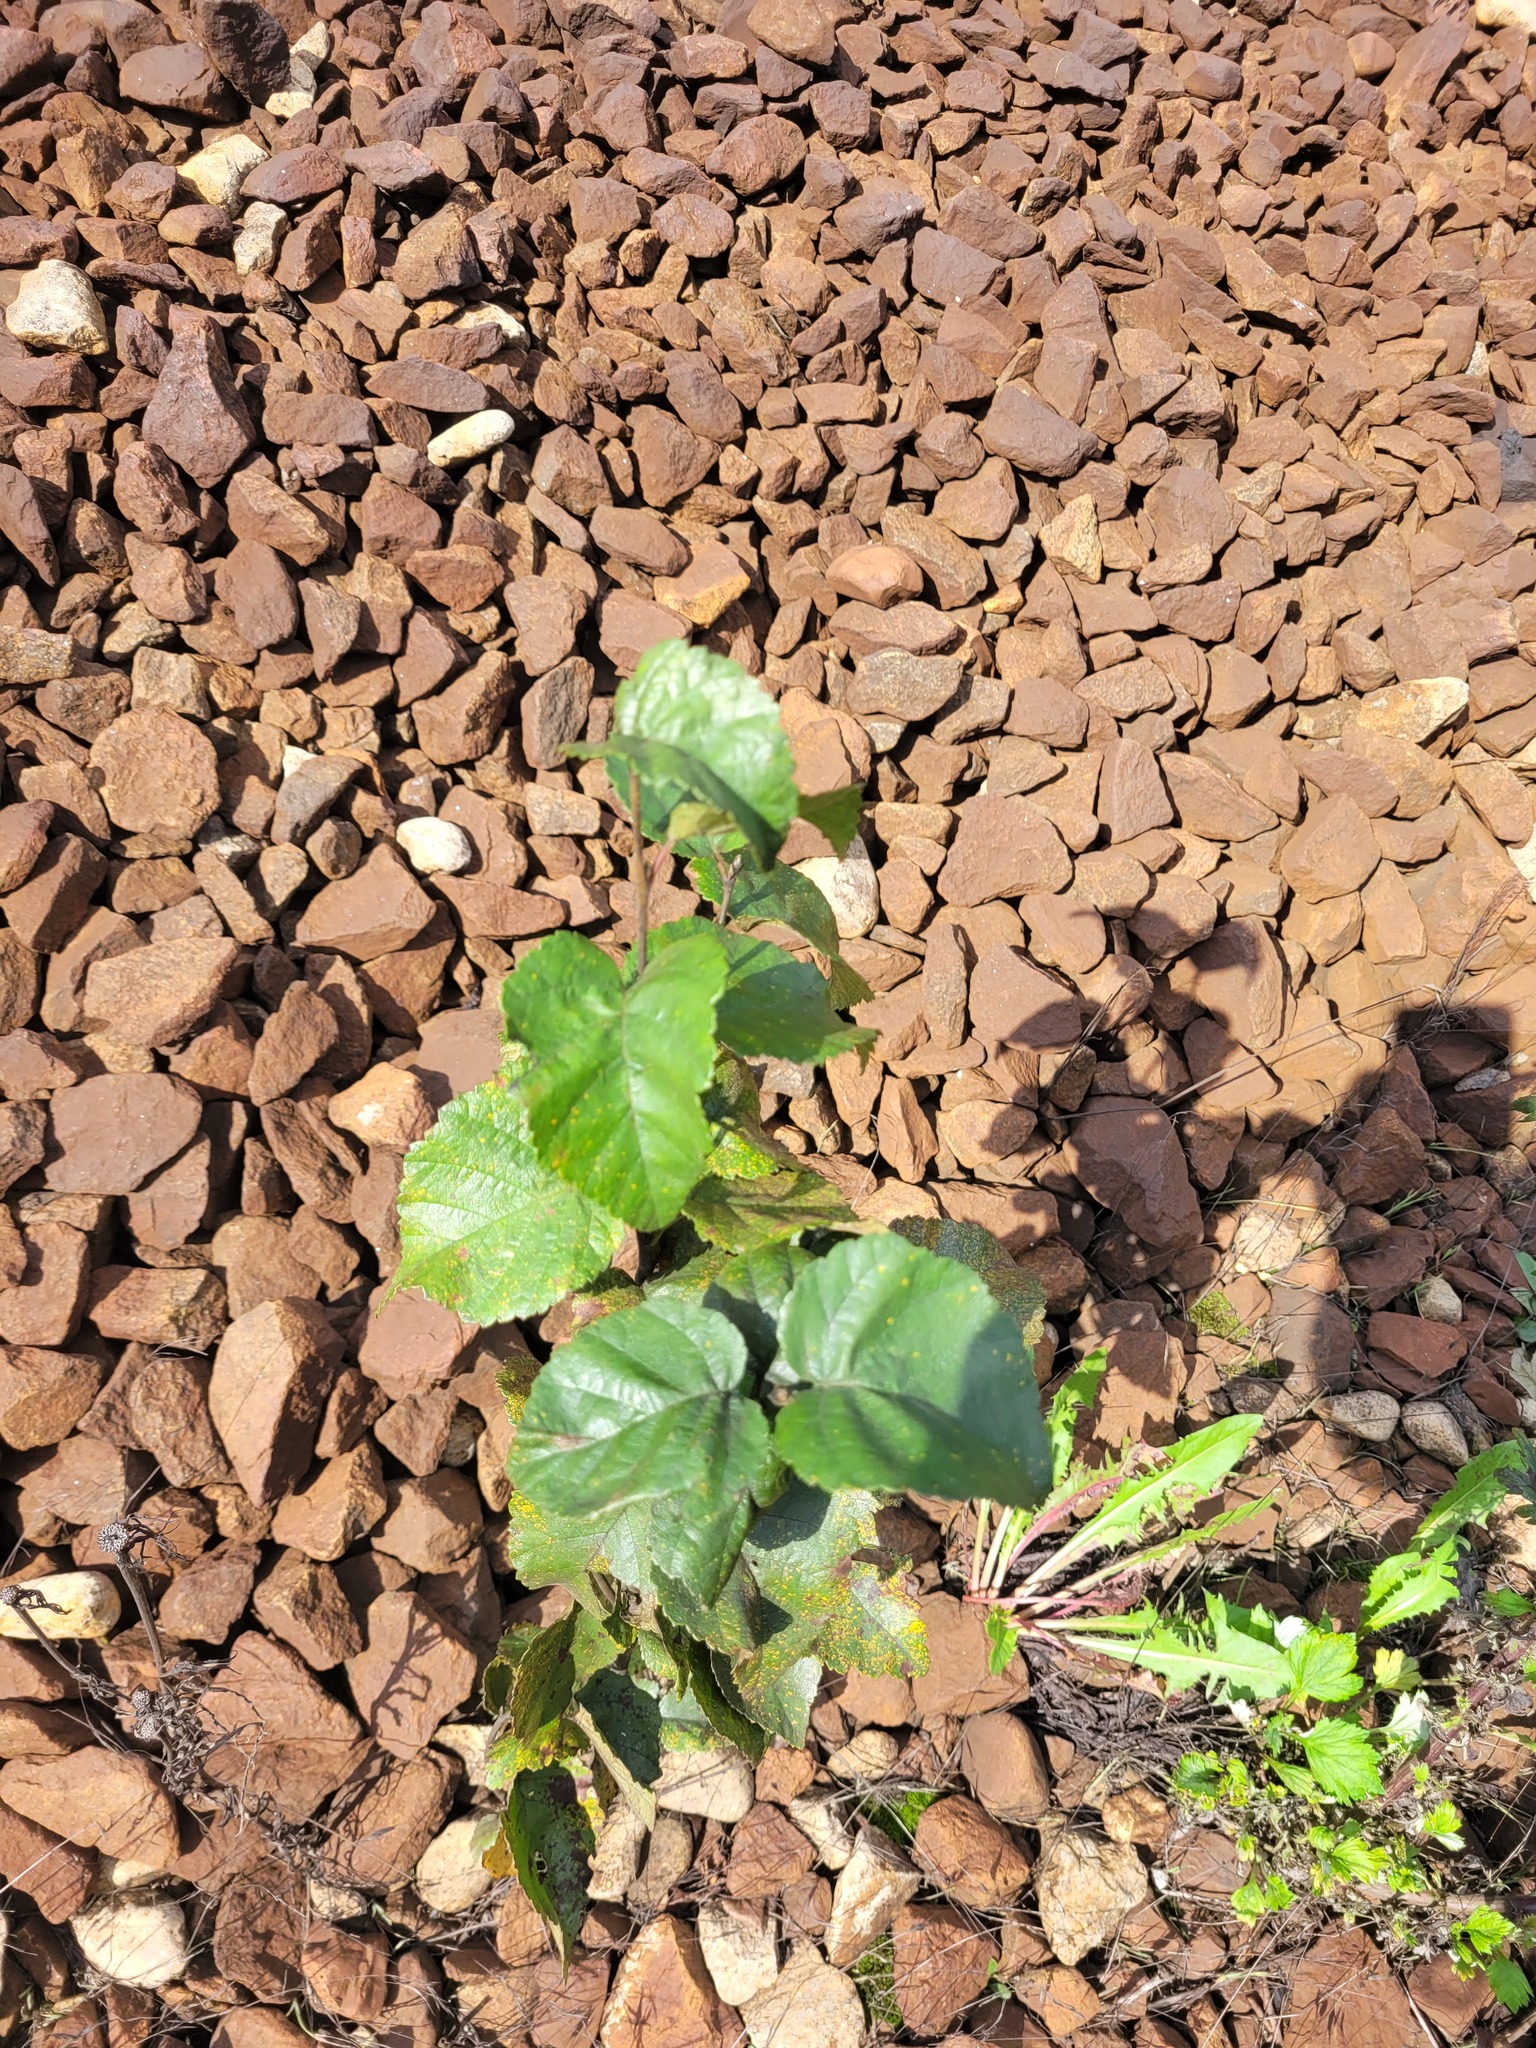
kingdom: Plantae
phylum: Tracheophyta
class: Magnoliopsida
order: Fagales
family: Betulaceae
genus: Betula
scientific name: Betula pubescens
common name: Downy birch
